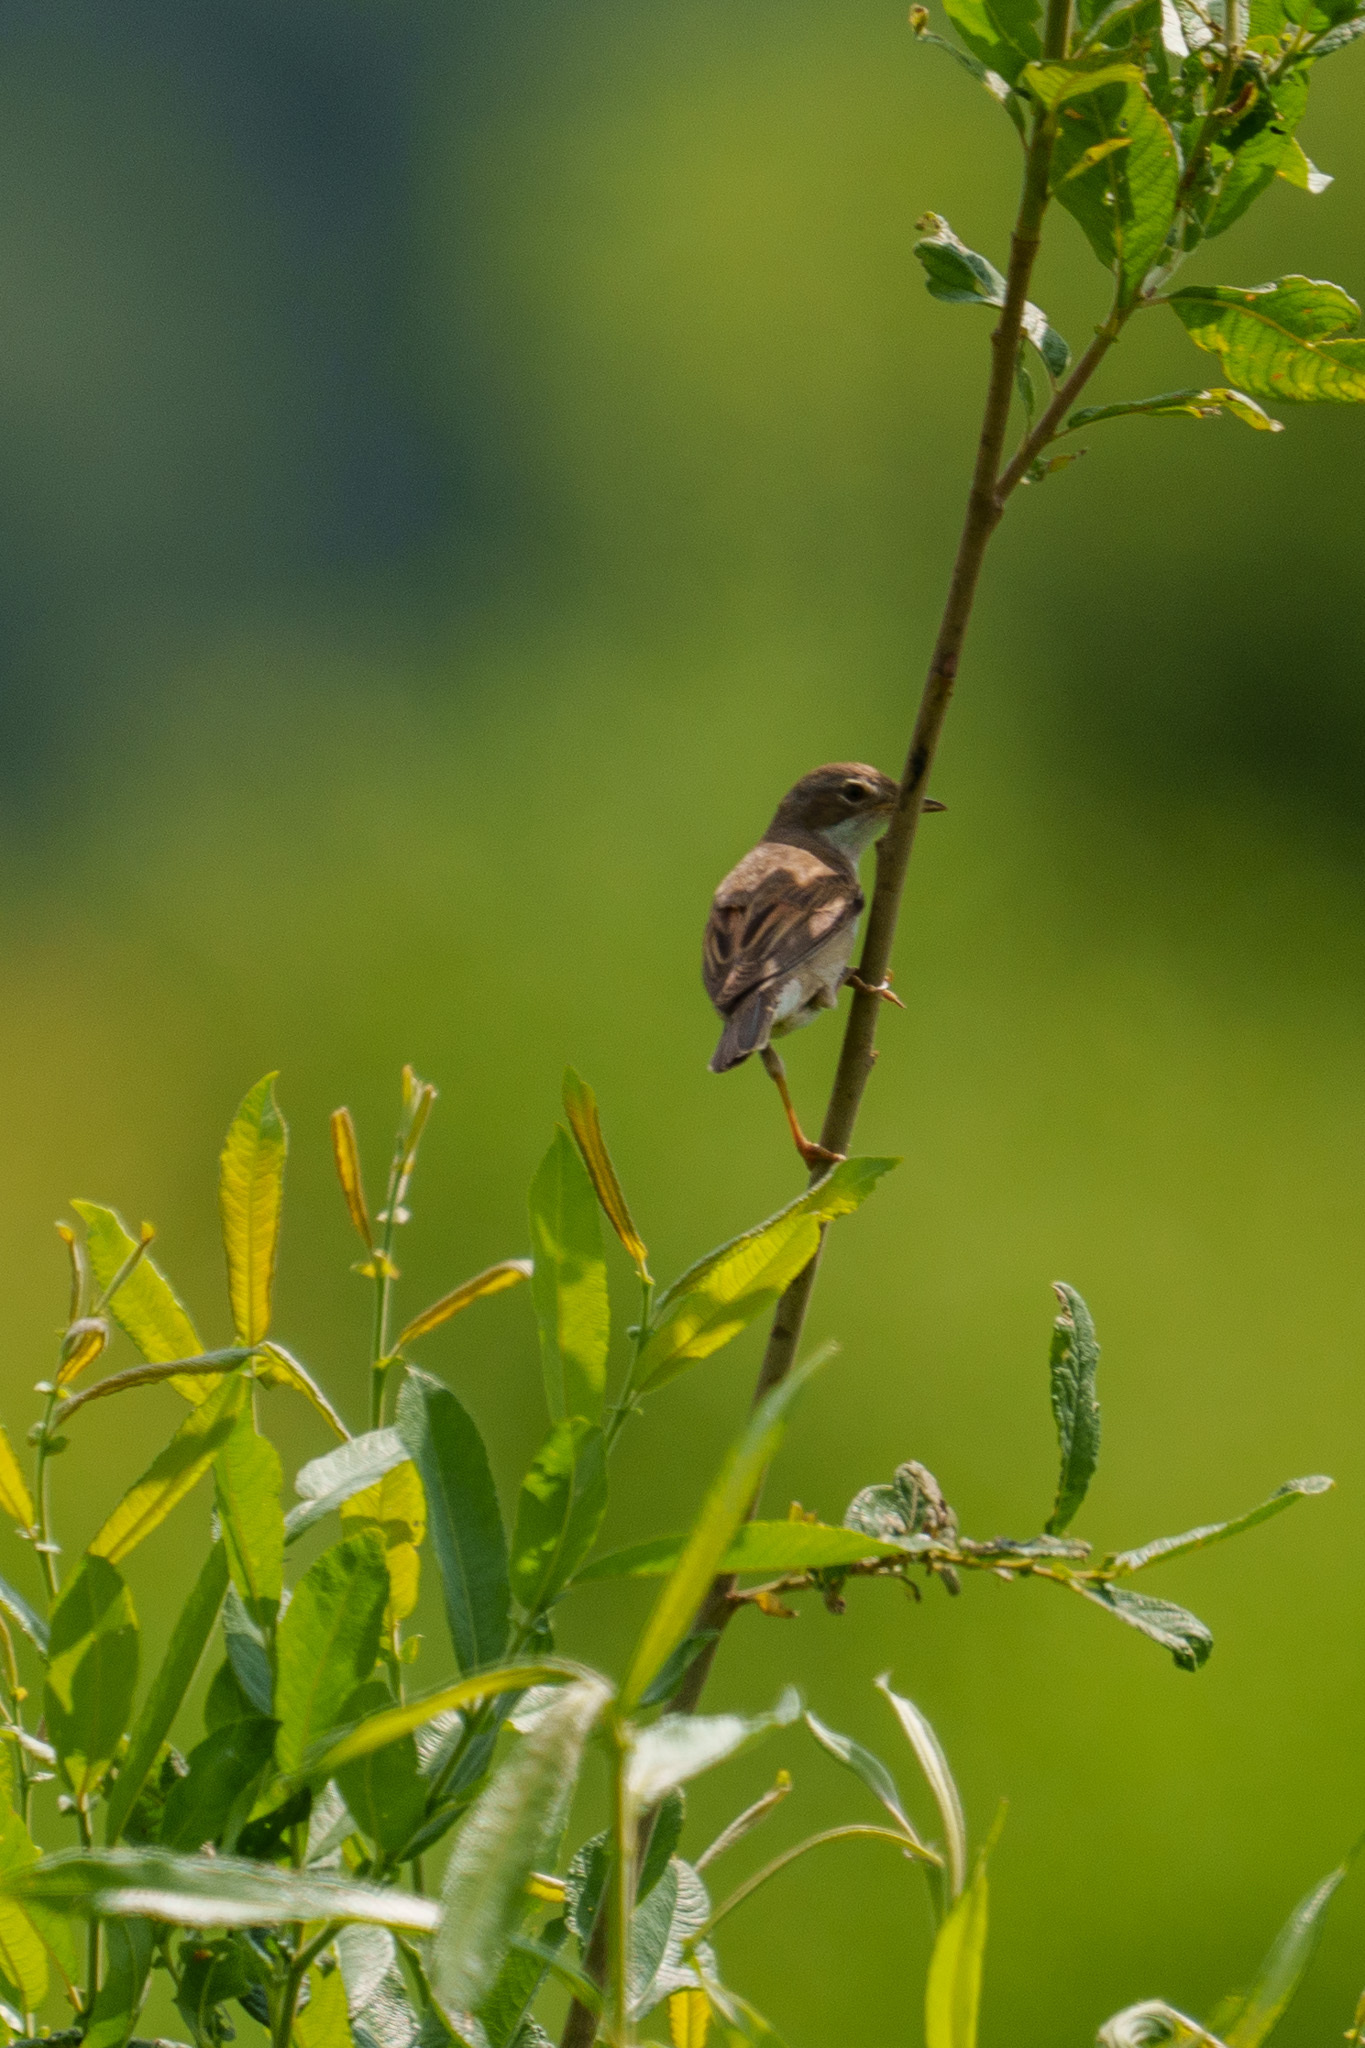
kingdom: Animalia
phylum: Chordata
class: Aves
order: Passeriformes
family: Sylviidae
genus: Sylvia
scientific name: Sylvia communis
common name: Common whitethroat
